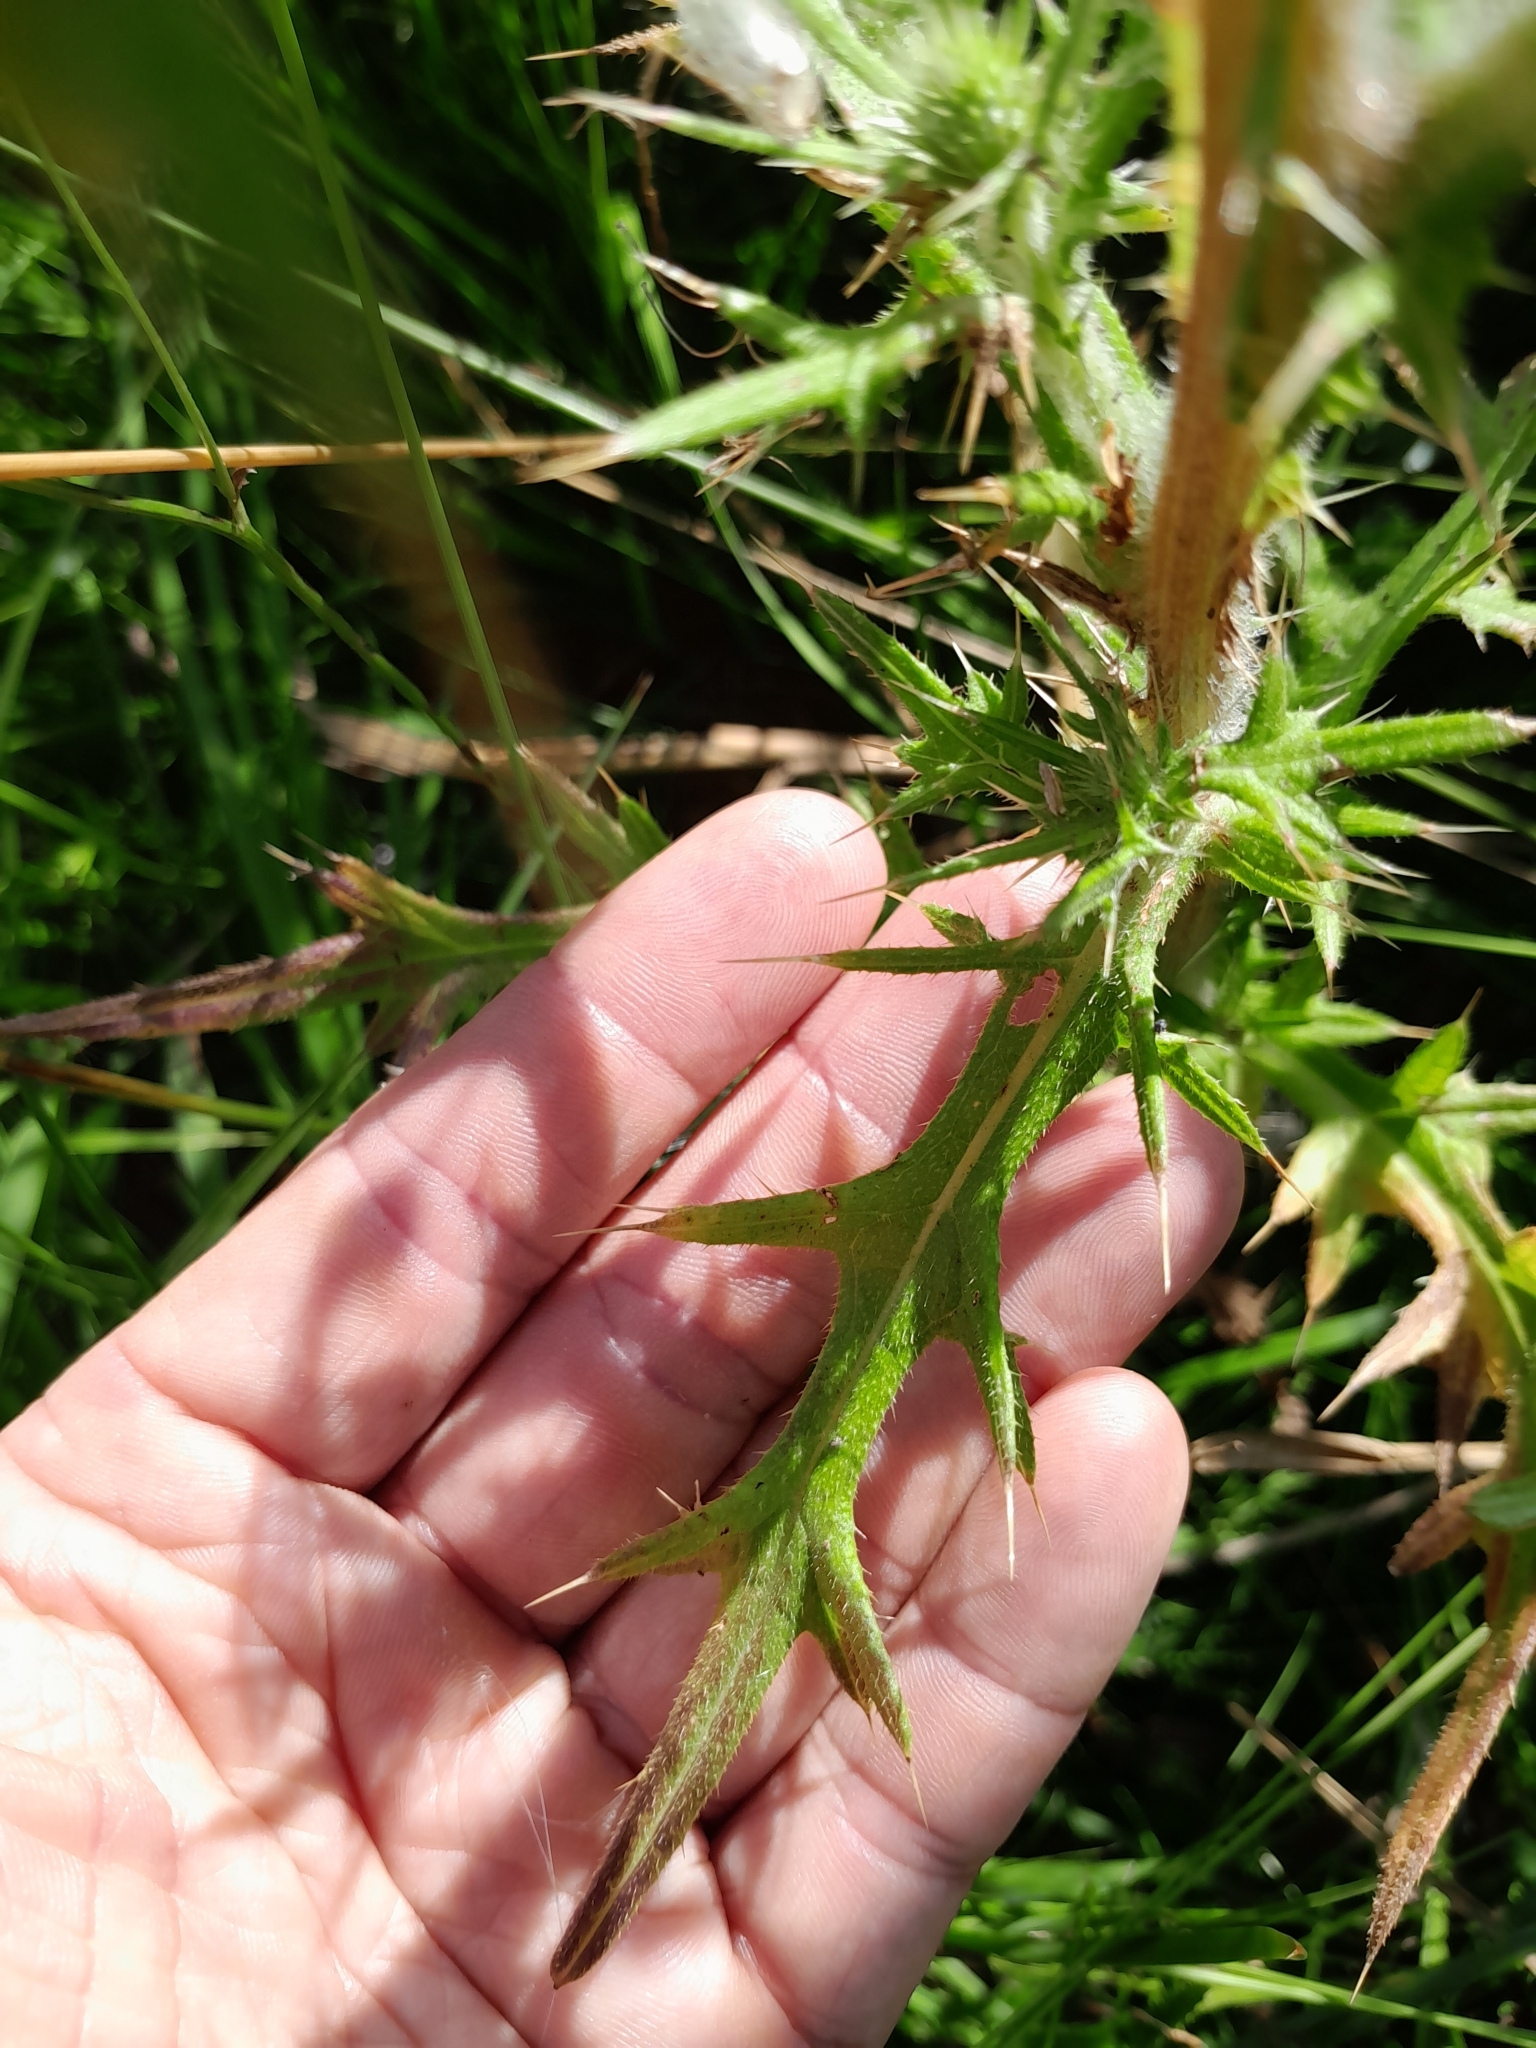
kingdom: Plantae
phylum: Tracheophyta
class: Magnoliopsida
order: Asterales
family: Asteraceae
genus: Cirsium
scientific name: Cirsium vulgare
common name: Bull thistle
